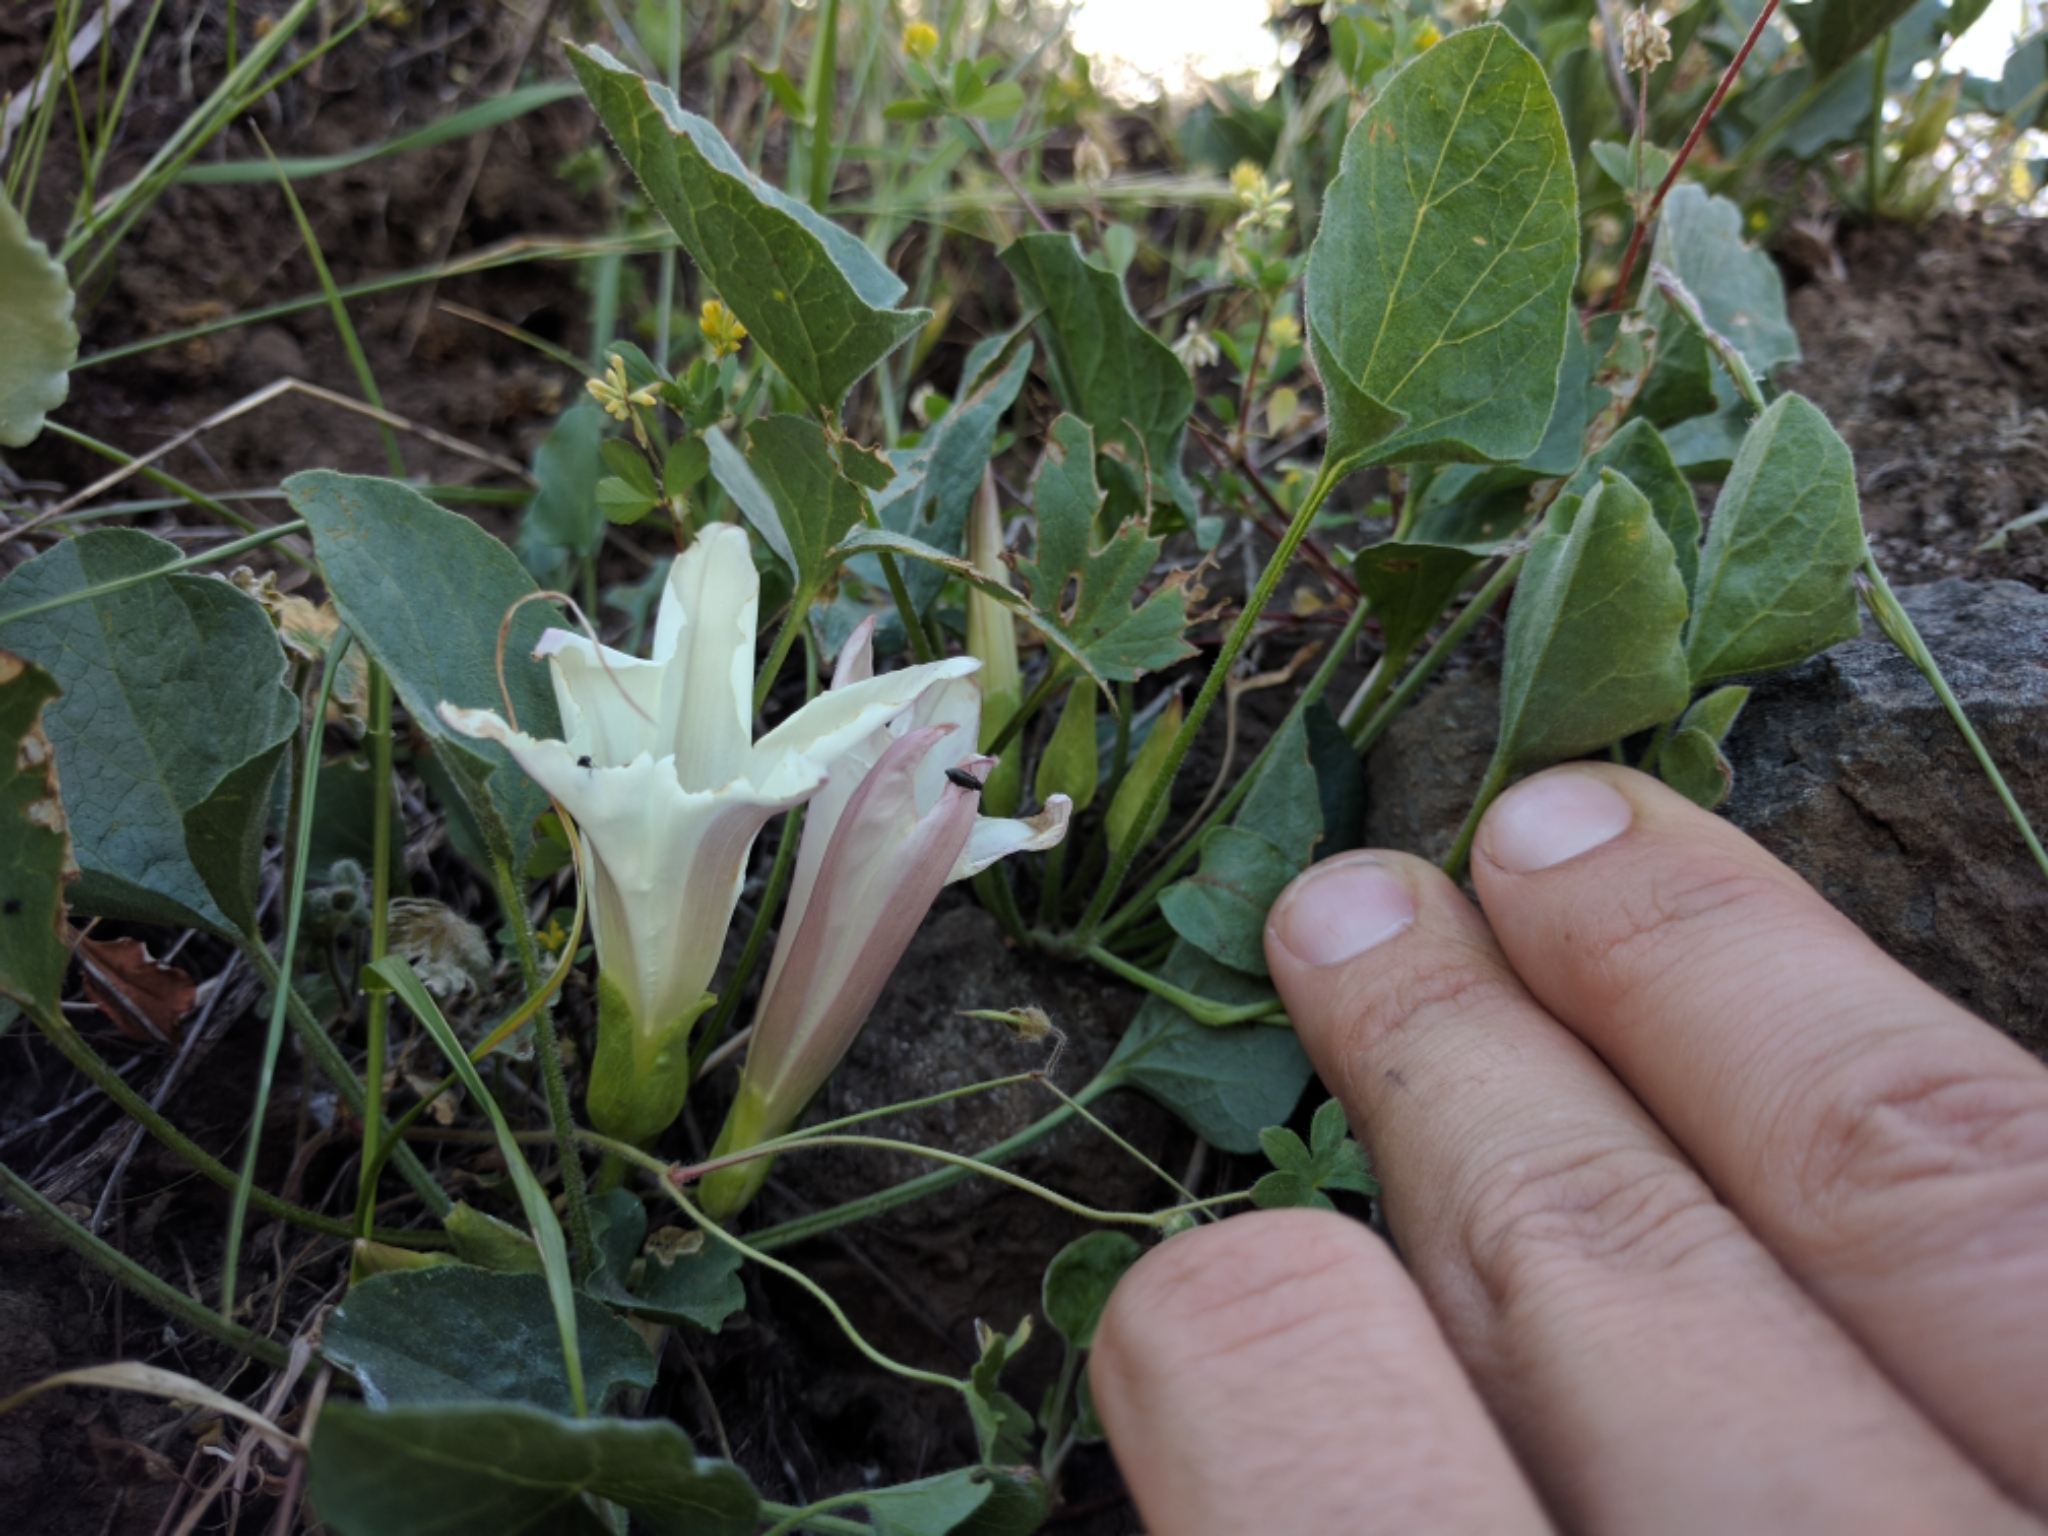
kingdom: Plantae
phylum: Tracheophyta
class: Magnoliopsida
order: Solanales
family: Convolvulaceae
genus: Calystegia
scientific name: Calystegia subacaulis
